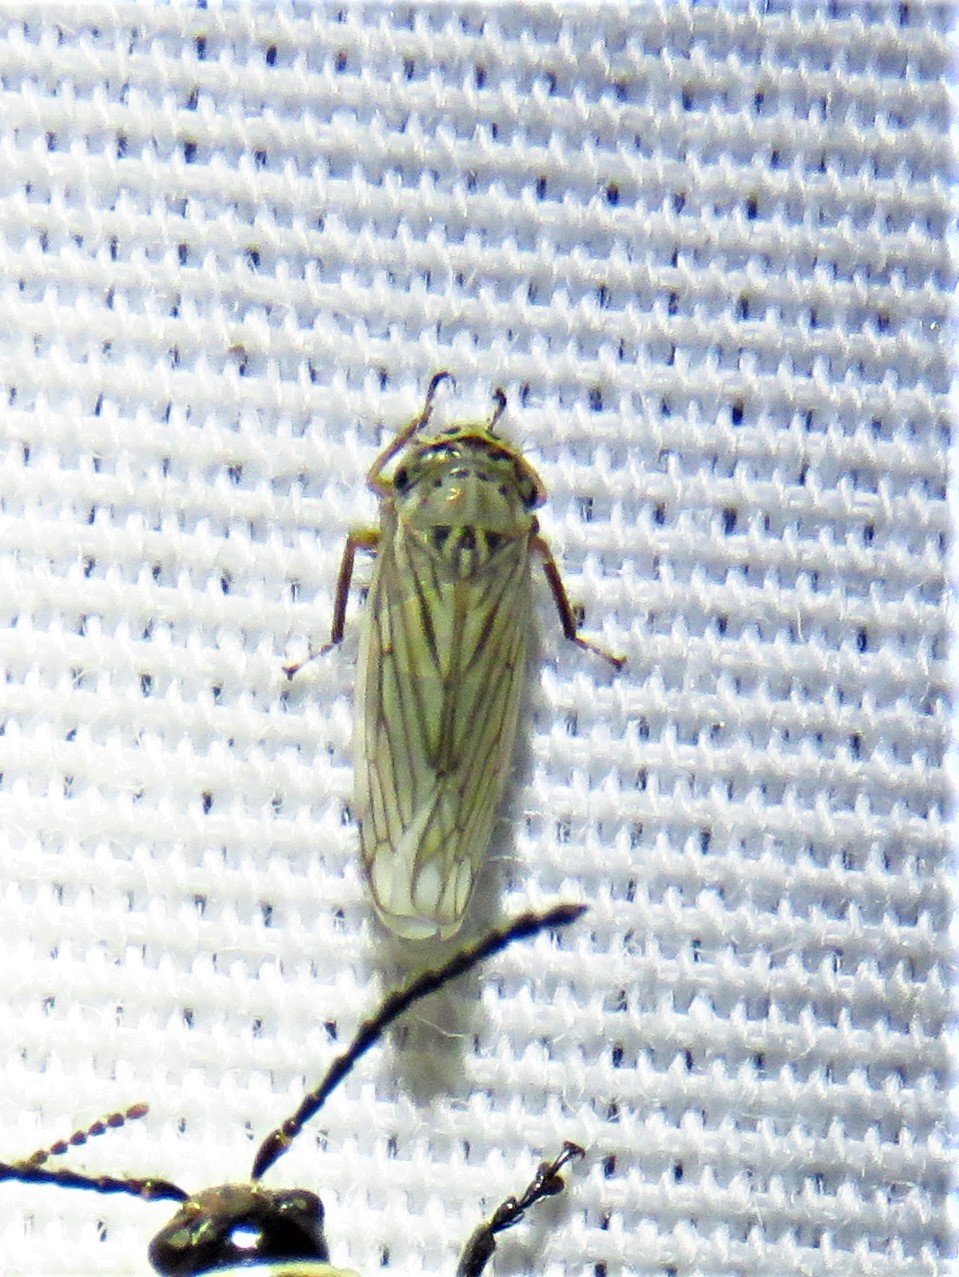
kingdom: Animalia
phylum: Arthropoda
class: Insecta
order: Hemiptera
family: Cicadellidae
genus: Exitianus
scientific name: Exitianus exitiosus
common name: Gray lawn leafhopper
